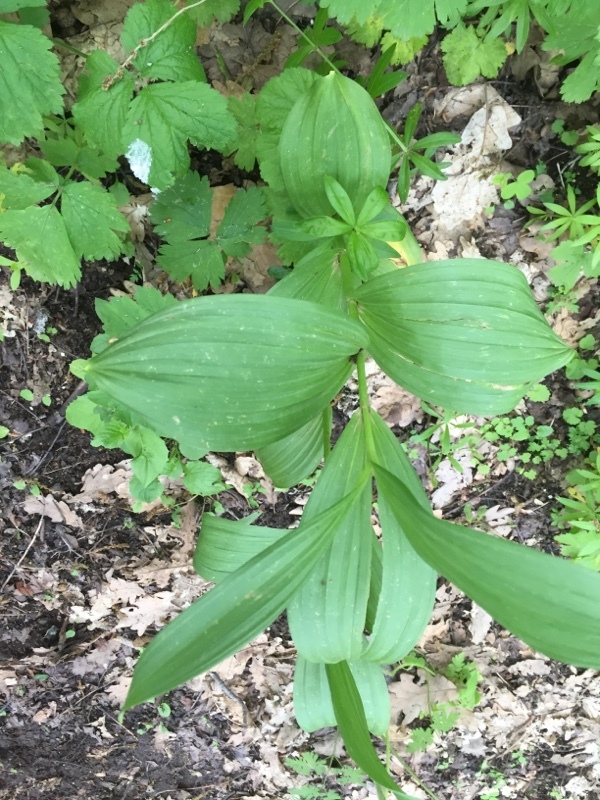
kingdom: Plantae
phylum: Tracheophyta
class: Liliopsida
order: Liliales
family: Melanthiaceae
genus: Veratrum
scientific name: Veratrum album
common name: White veratrum
